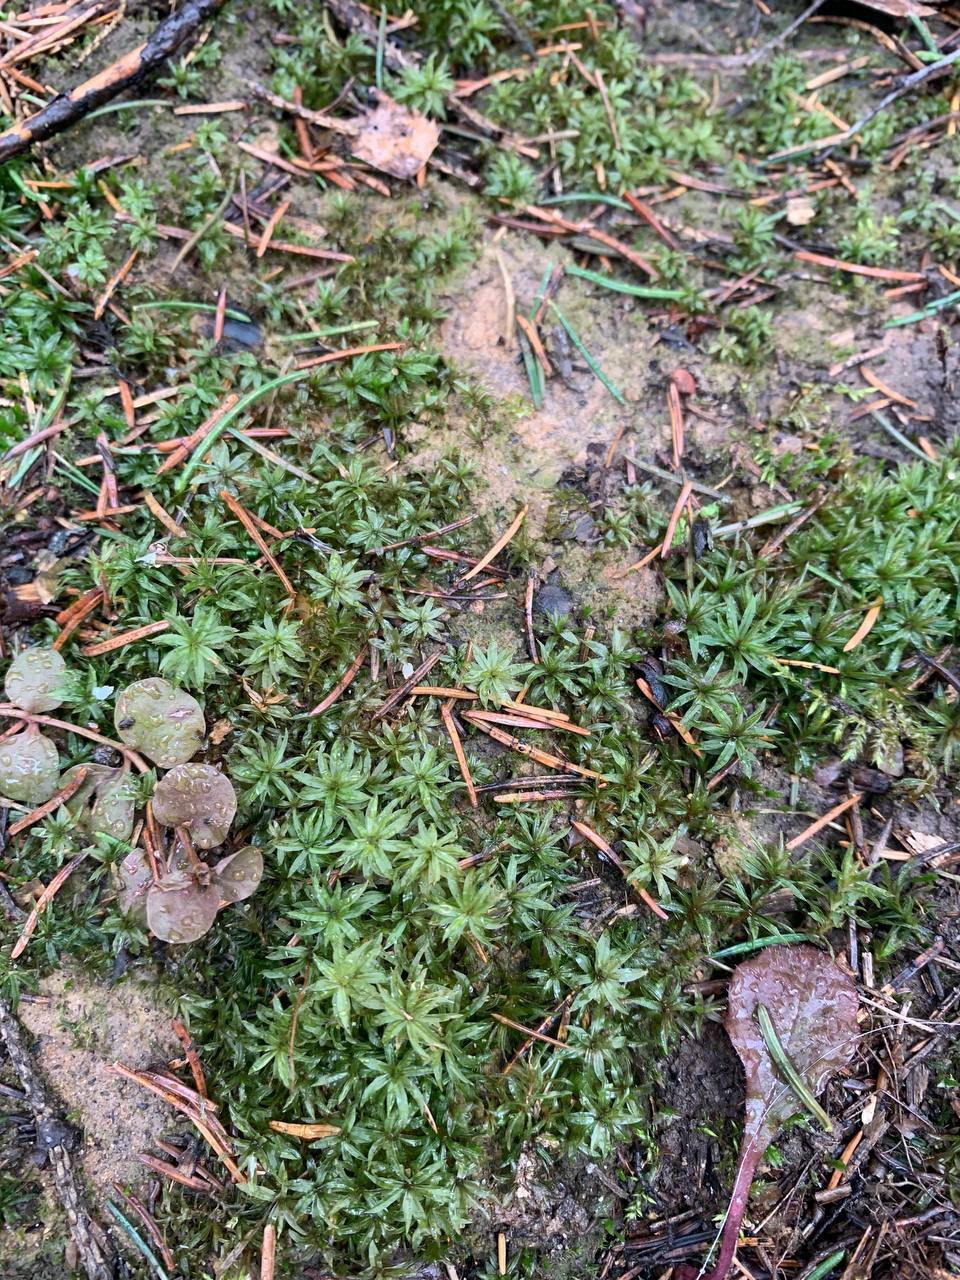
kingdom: Plantae
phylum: Bryophyta
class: Polytrichopsida
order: Polytrichales
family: Polytrichaceae
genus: Atrichum
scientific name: Atrichum undulatum
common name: Common smoothcap
